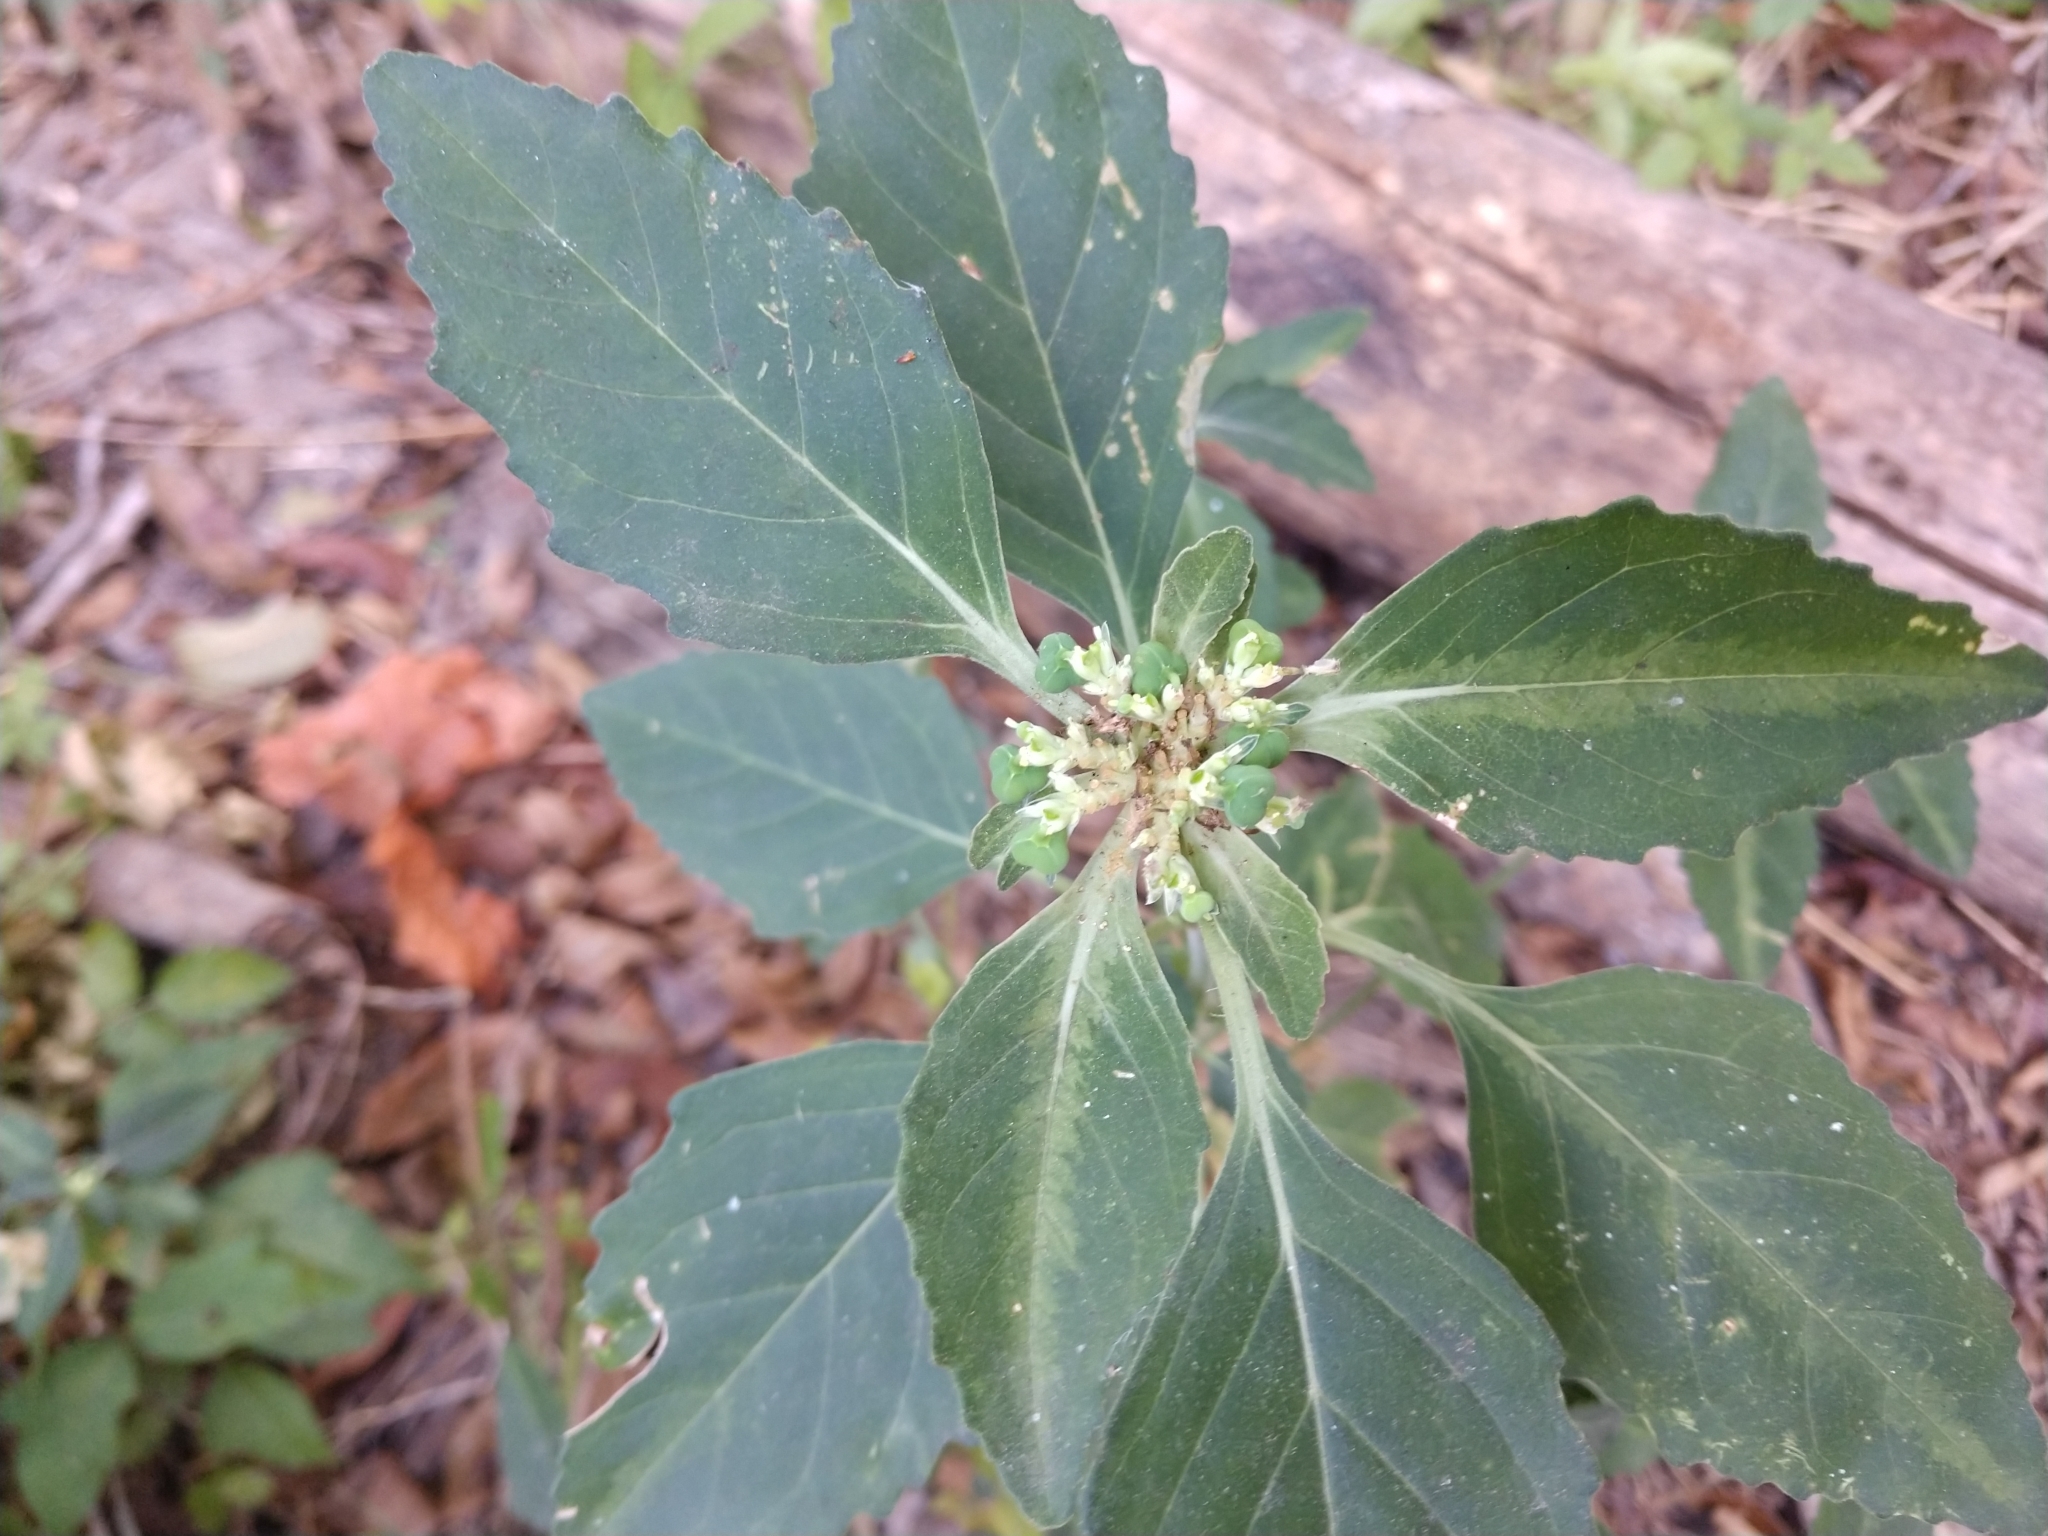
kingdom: Plantae
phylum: Tracheophyta
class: Magnoliopsida
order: Malpighiales
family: Euphorbiaceae
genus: Euphorbia
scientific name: Euphorbia dentata
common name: Dentate spurge
